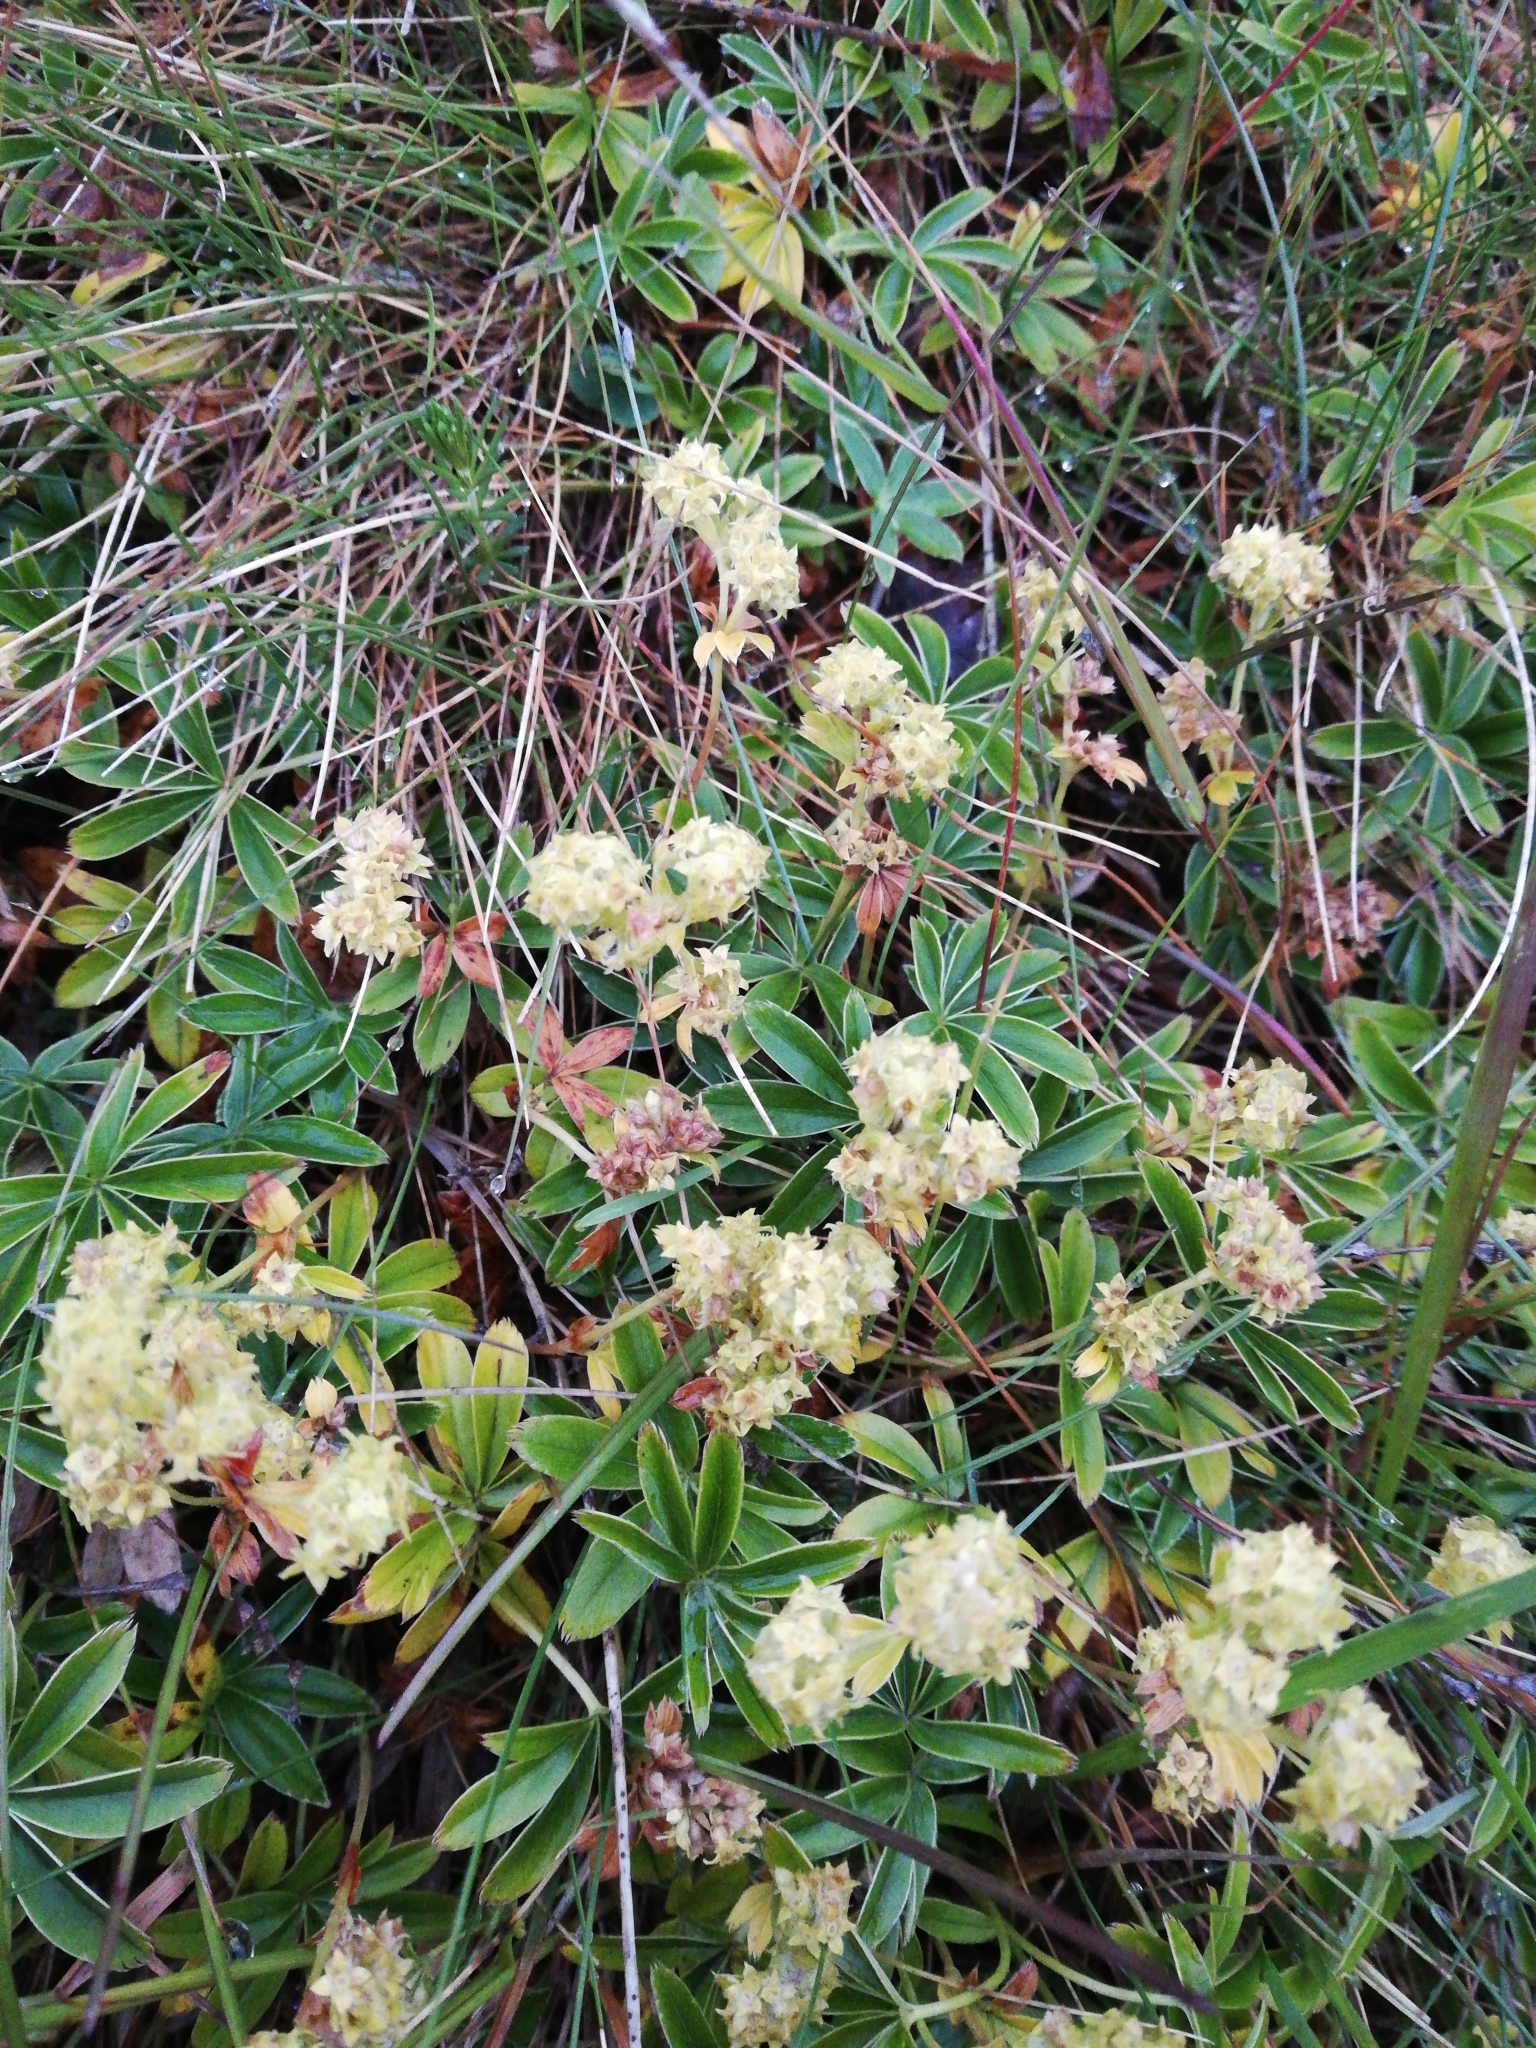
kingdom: Plantae
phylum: Tracheophyta
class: Magnoliopsida
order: Rosales
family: Rosaceae
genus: Alchemilla
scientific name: Alchemilla alpina
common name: Alpine lady's-mantle
